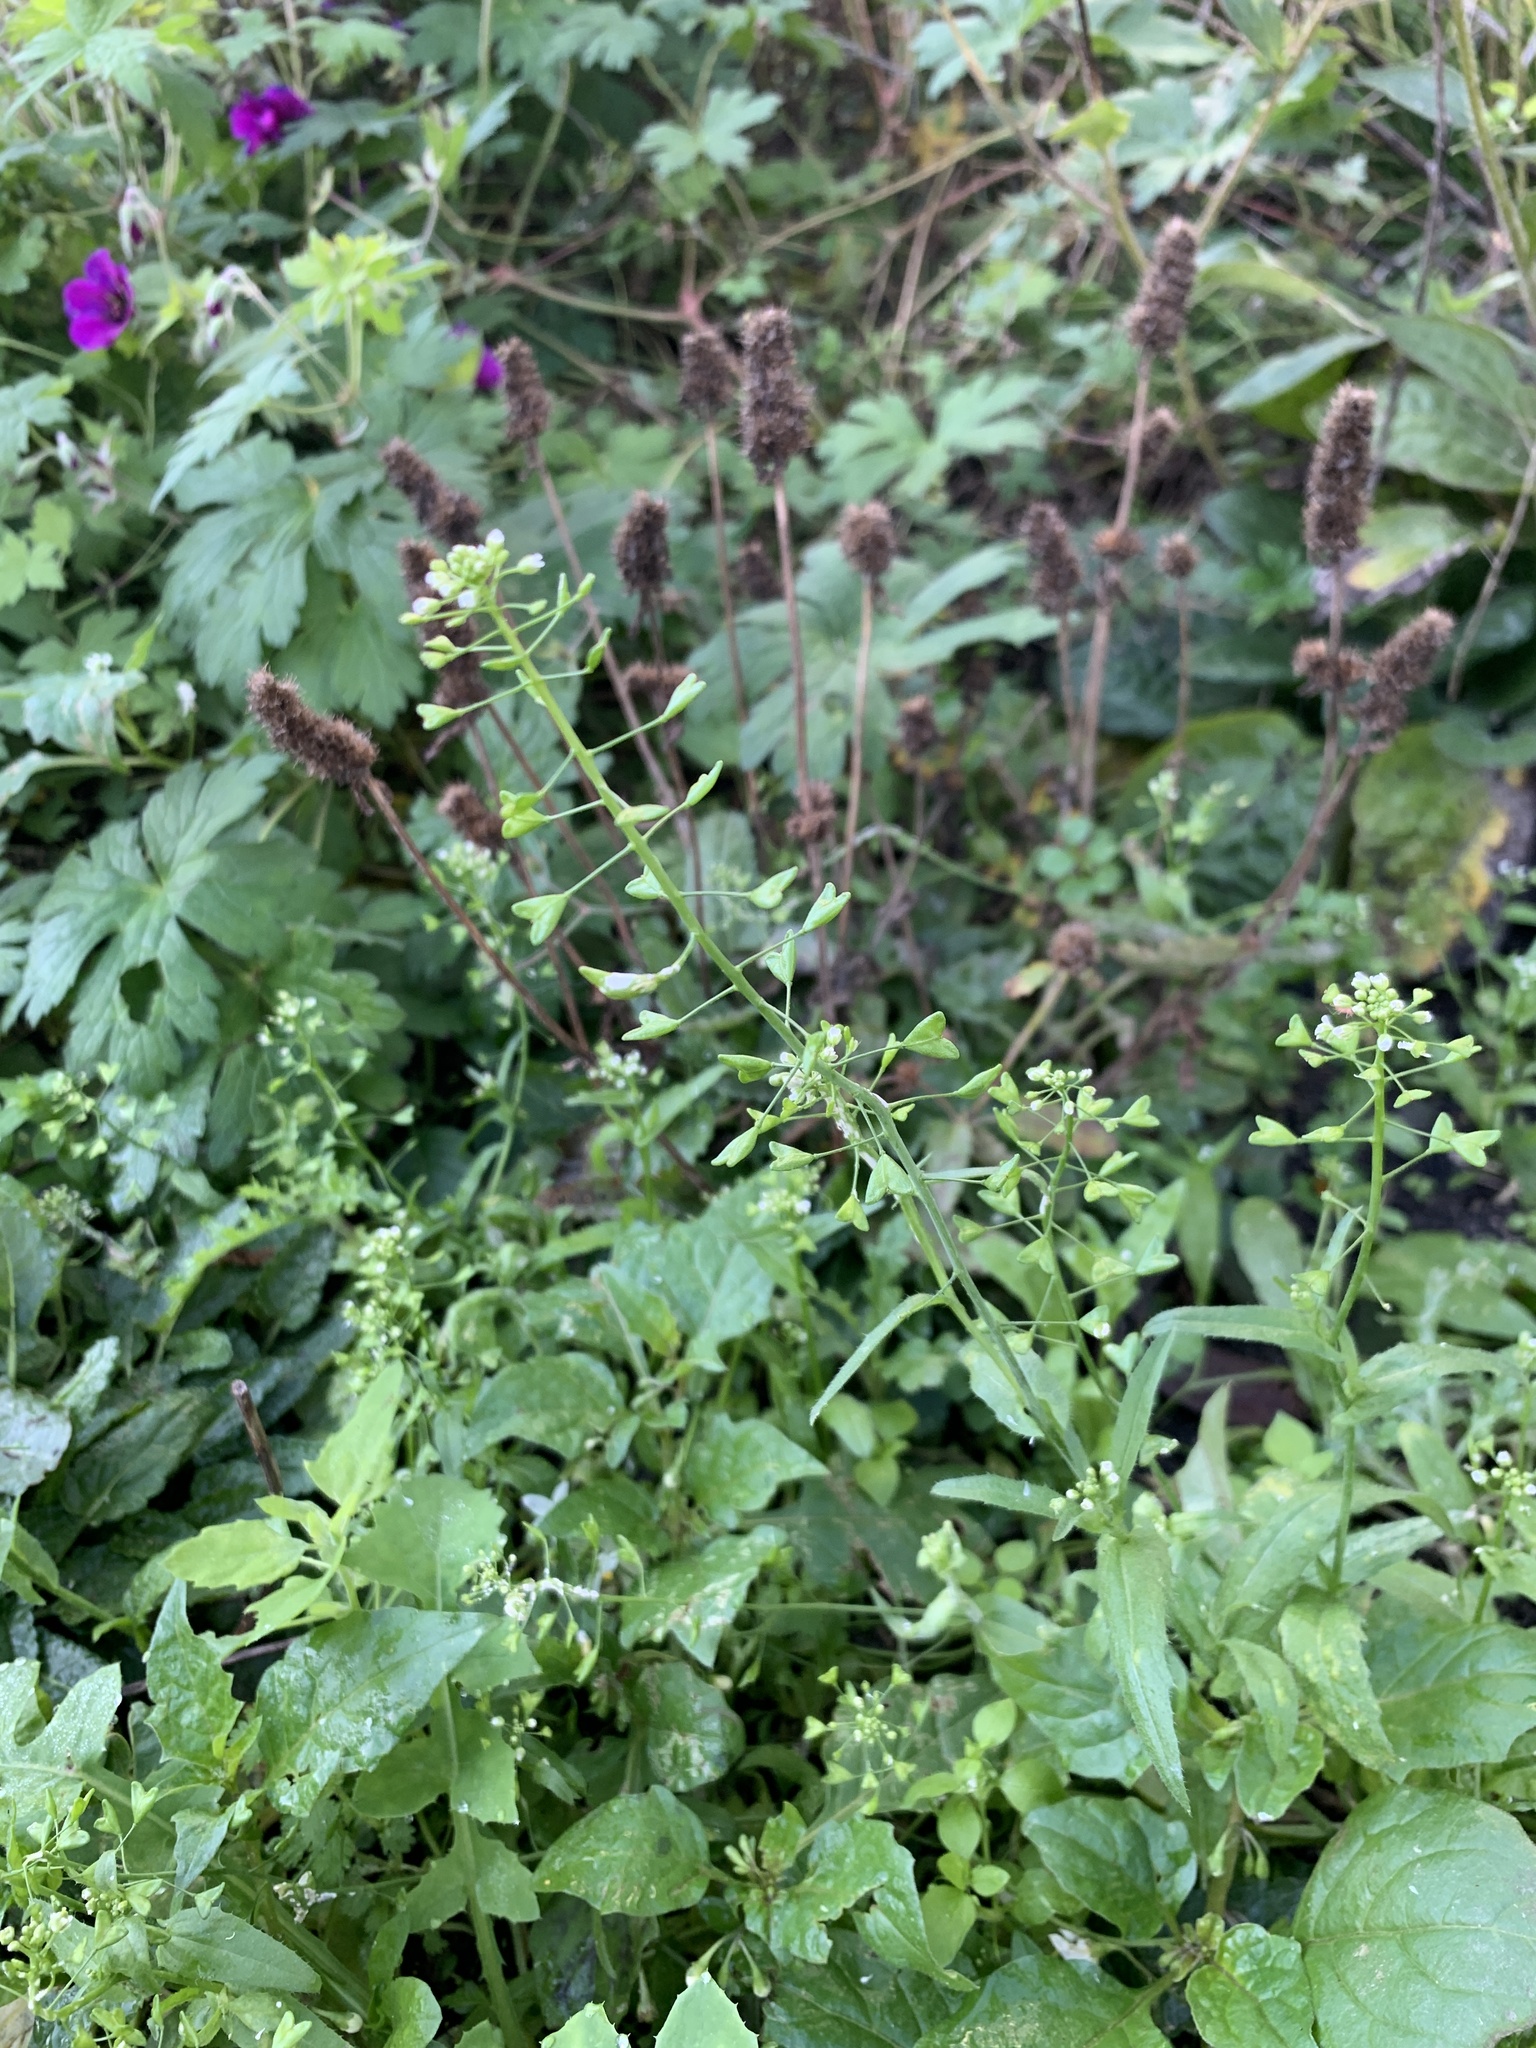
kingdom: Plantae
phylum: Tracheophyta
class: Magnoliopsida
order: Brassicales
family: Brassicaceae
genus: Capsella
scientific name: Capsella bursa-pastoris
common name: Shepherd's purse
